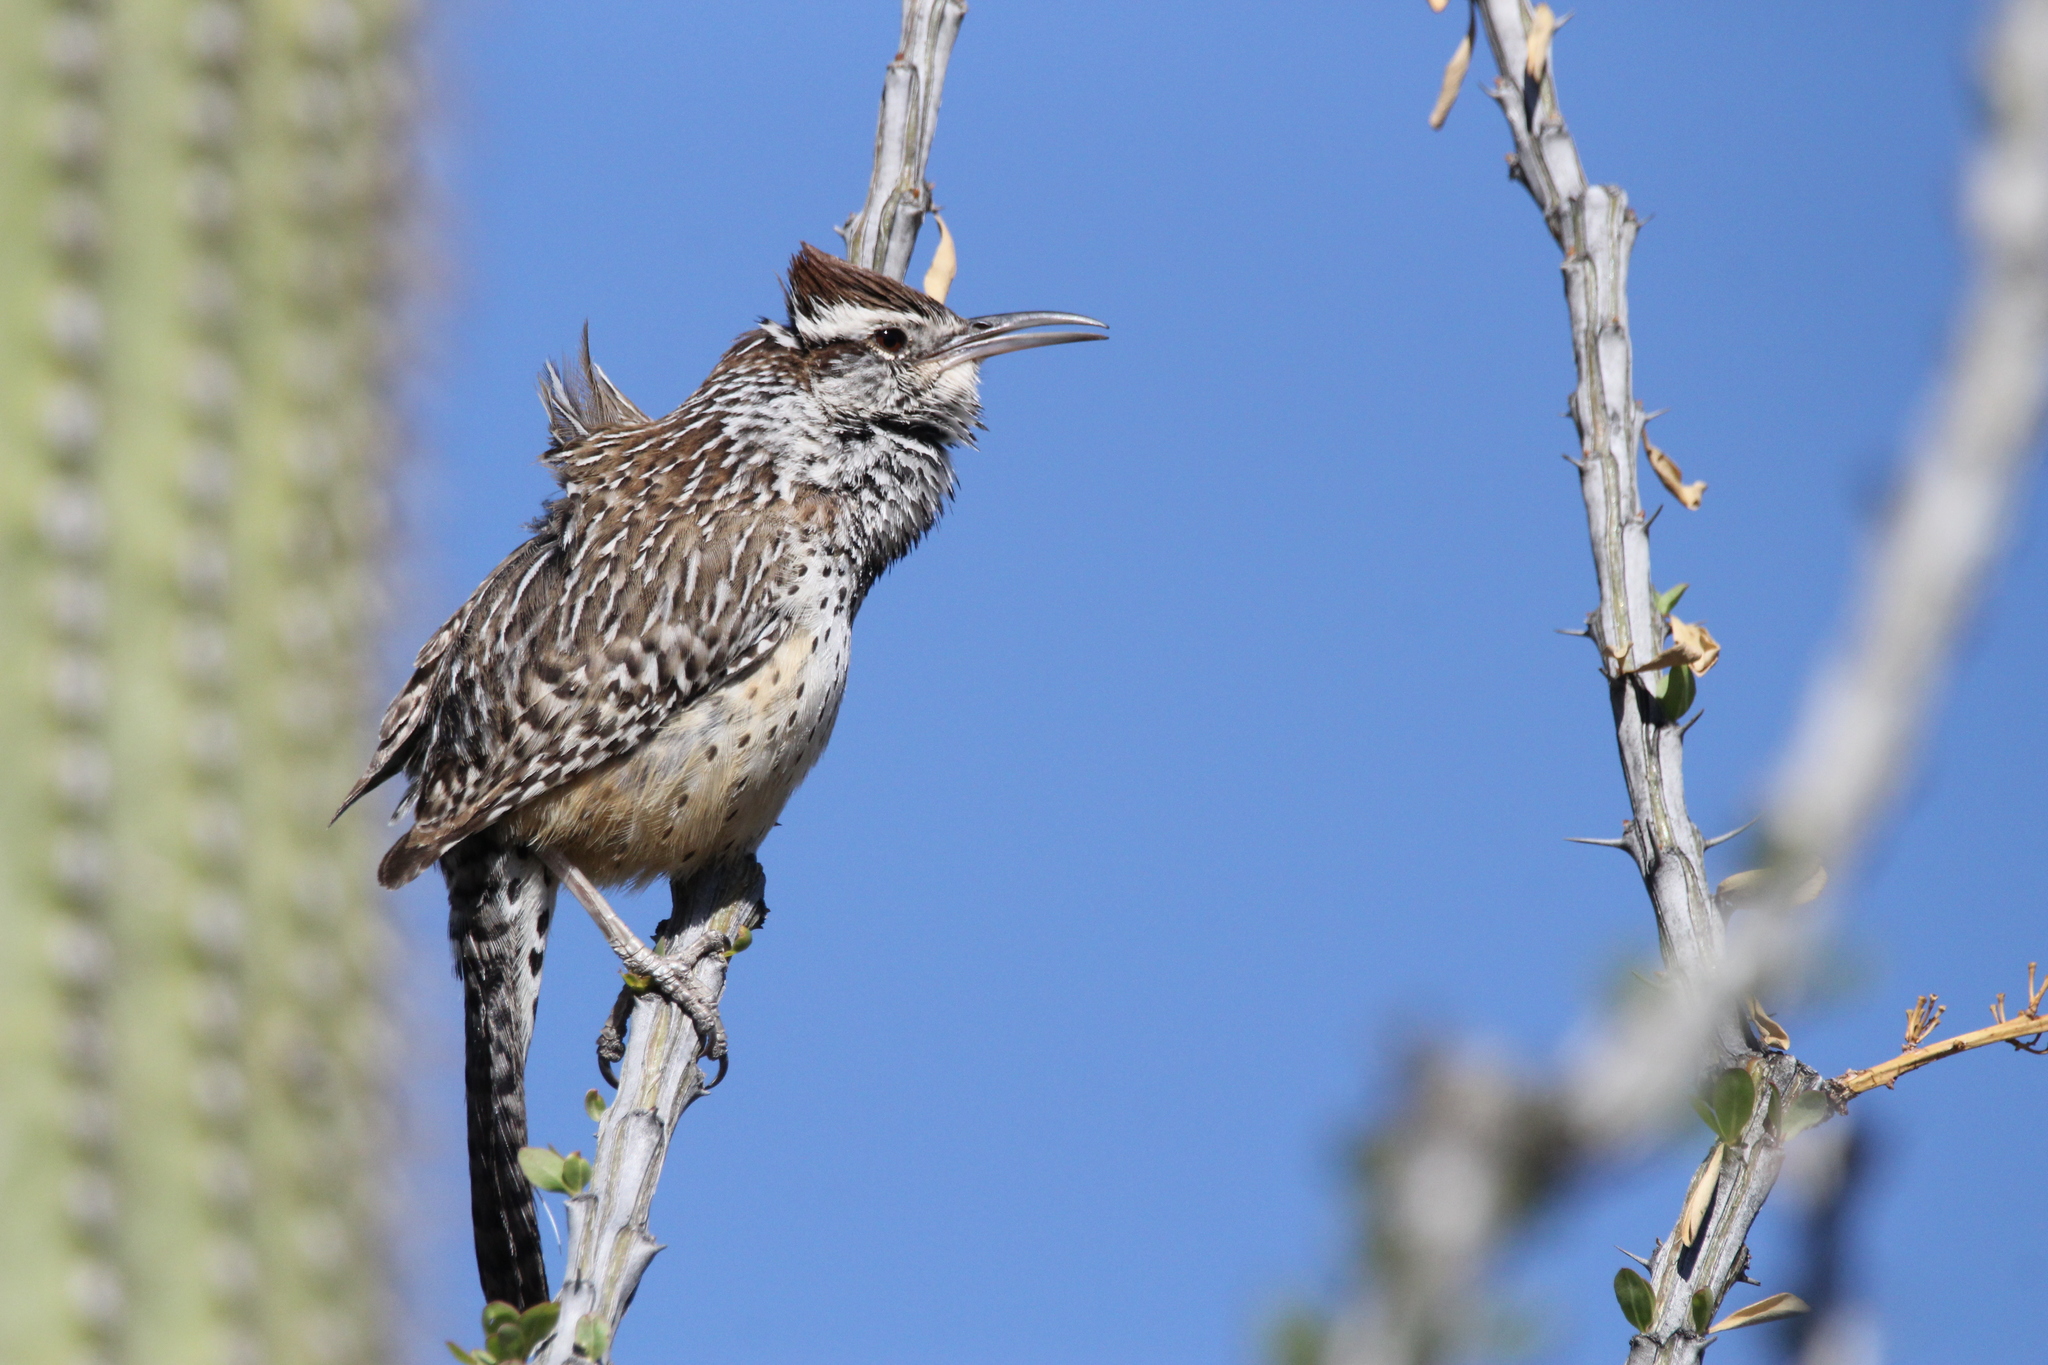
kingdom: Animalia
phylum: Chordata
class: Aves
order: Passeriformes
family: Troglodytidae
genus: Campylorhynchus
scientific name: Campylorhynchus brunneicapillus
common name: Cactus wren
